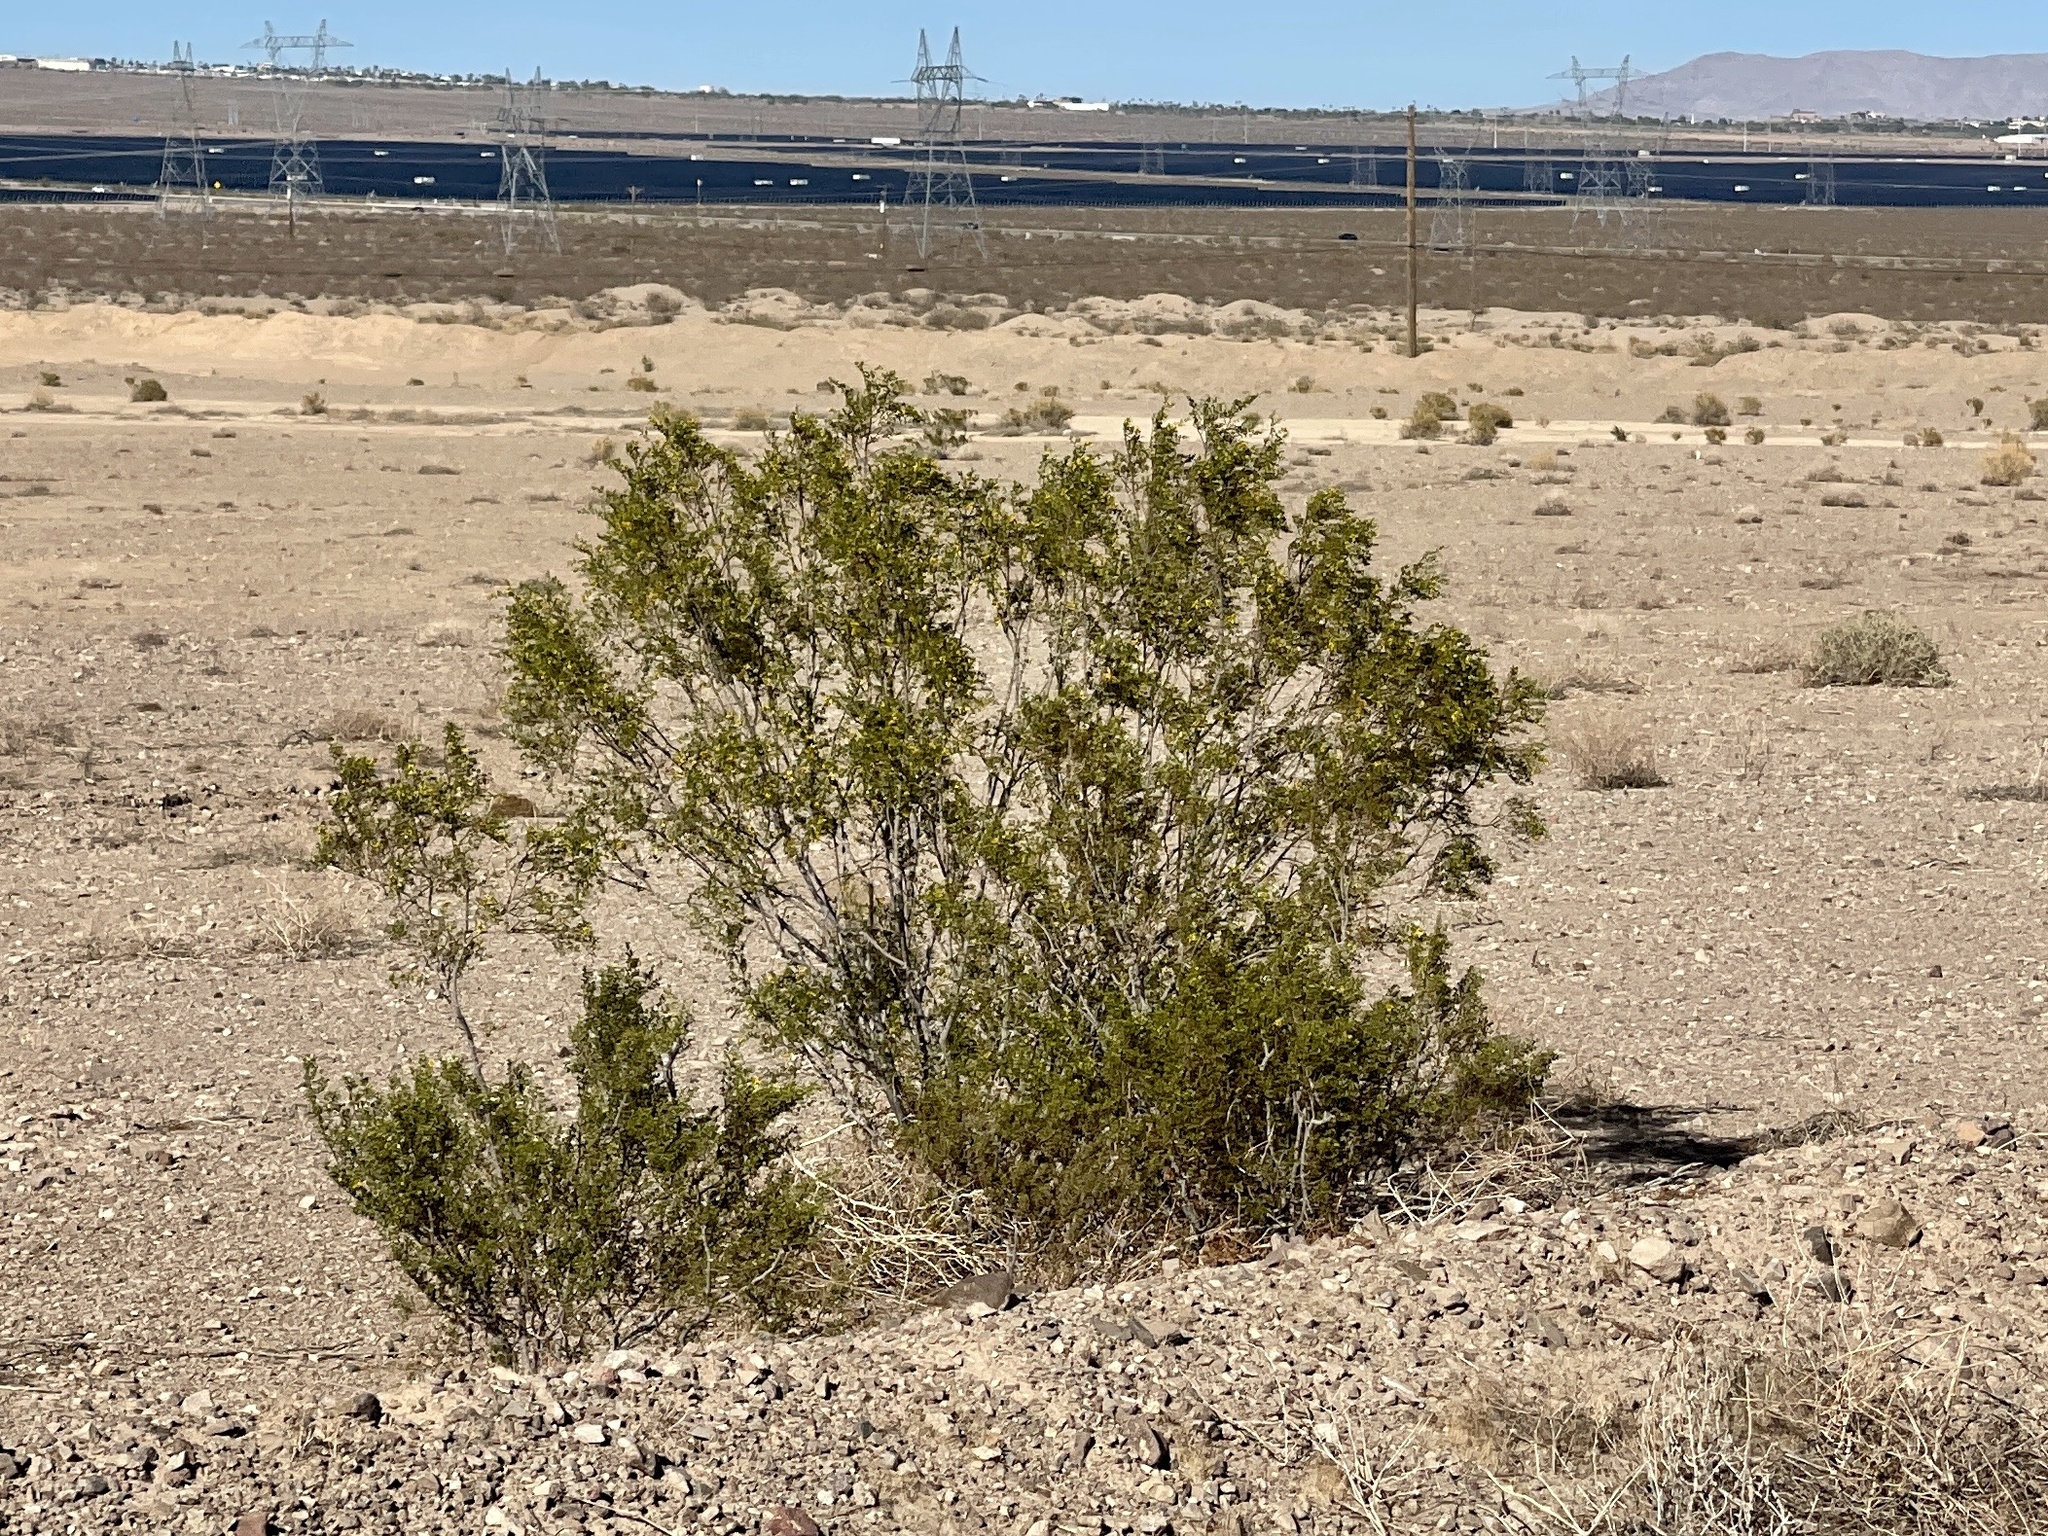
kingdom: Plantae
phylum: Tracheophyta
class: Magnoliopsida
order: Zygophyllales
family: Zygophyllaceae
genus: Larrea
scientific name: Larrea tridentata
